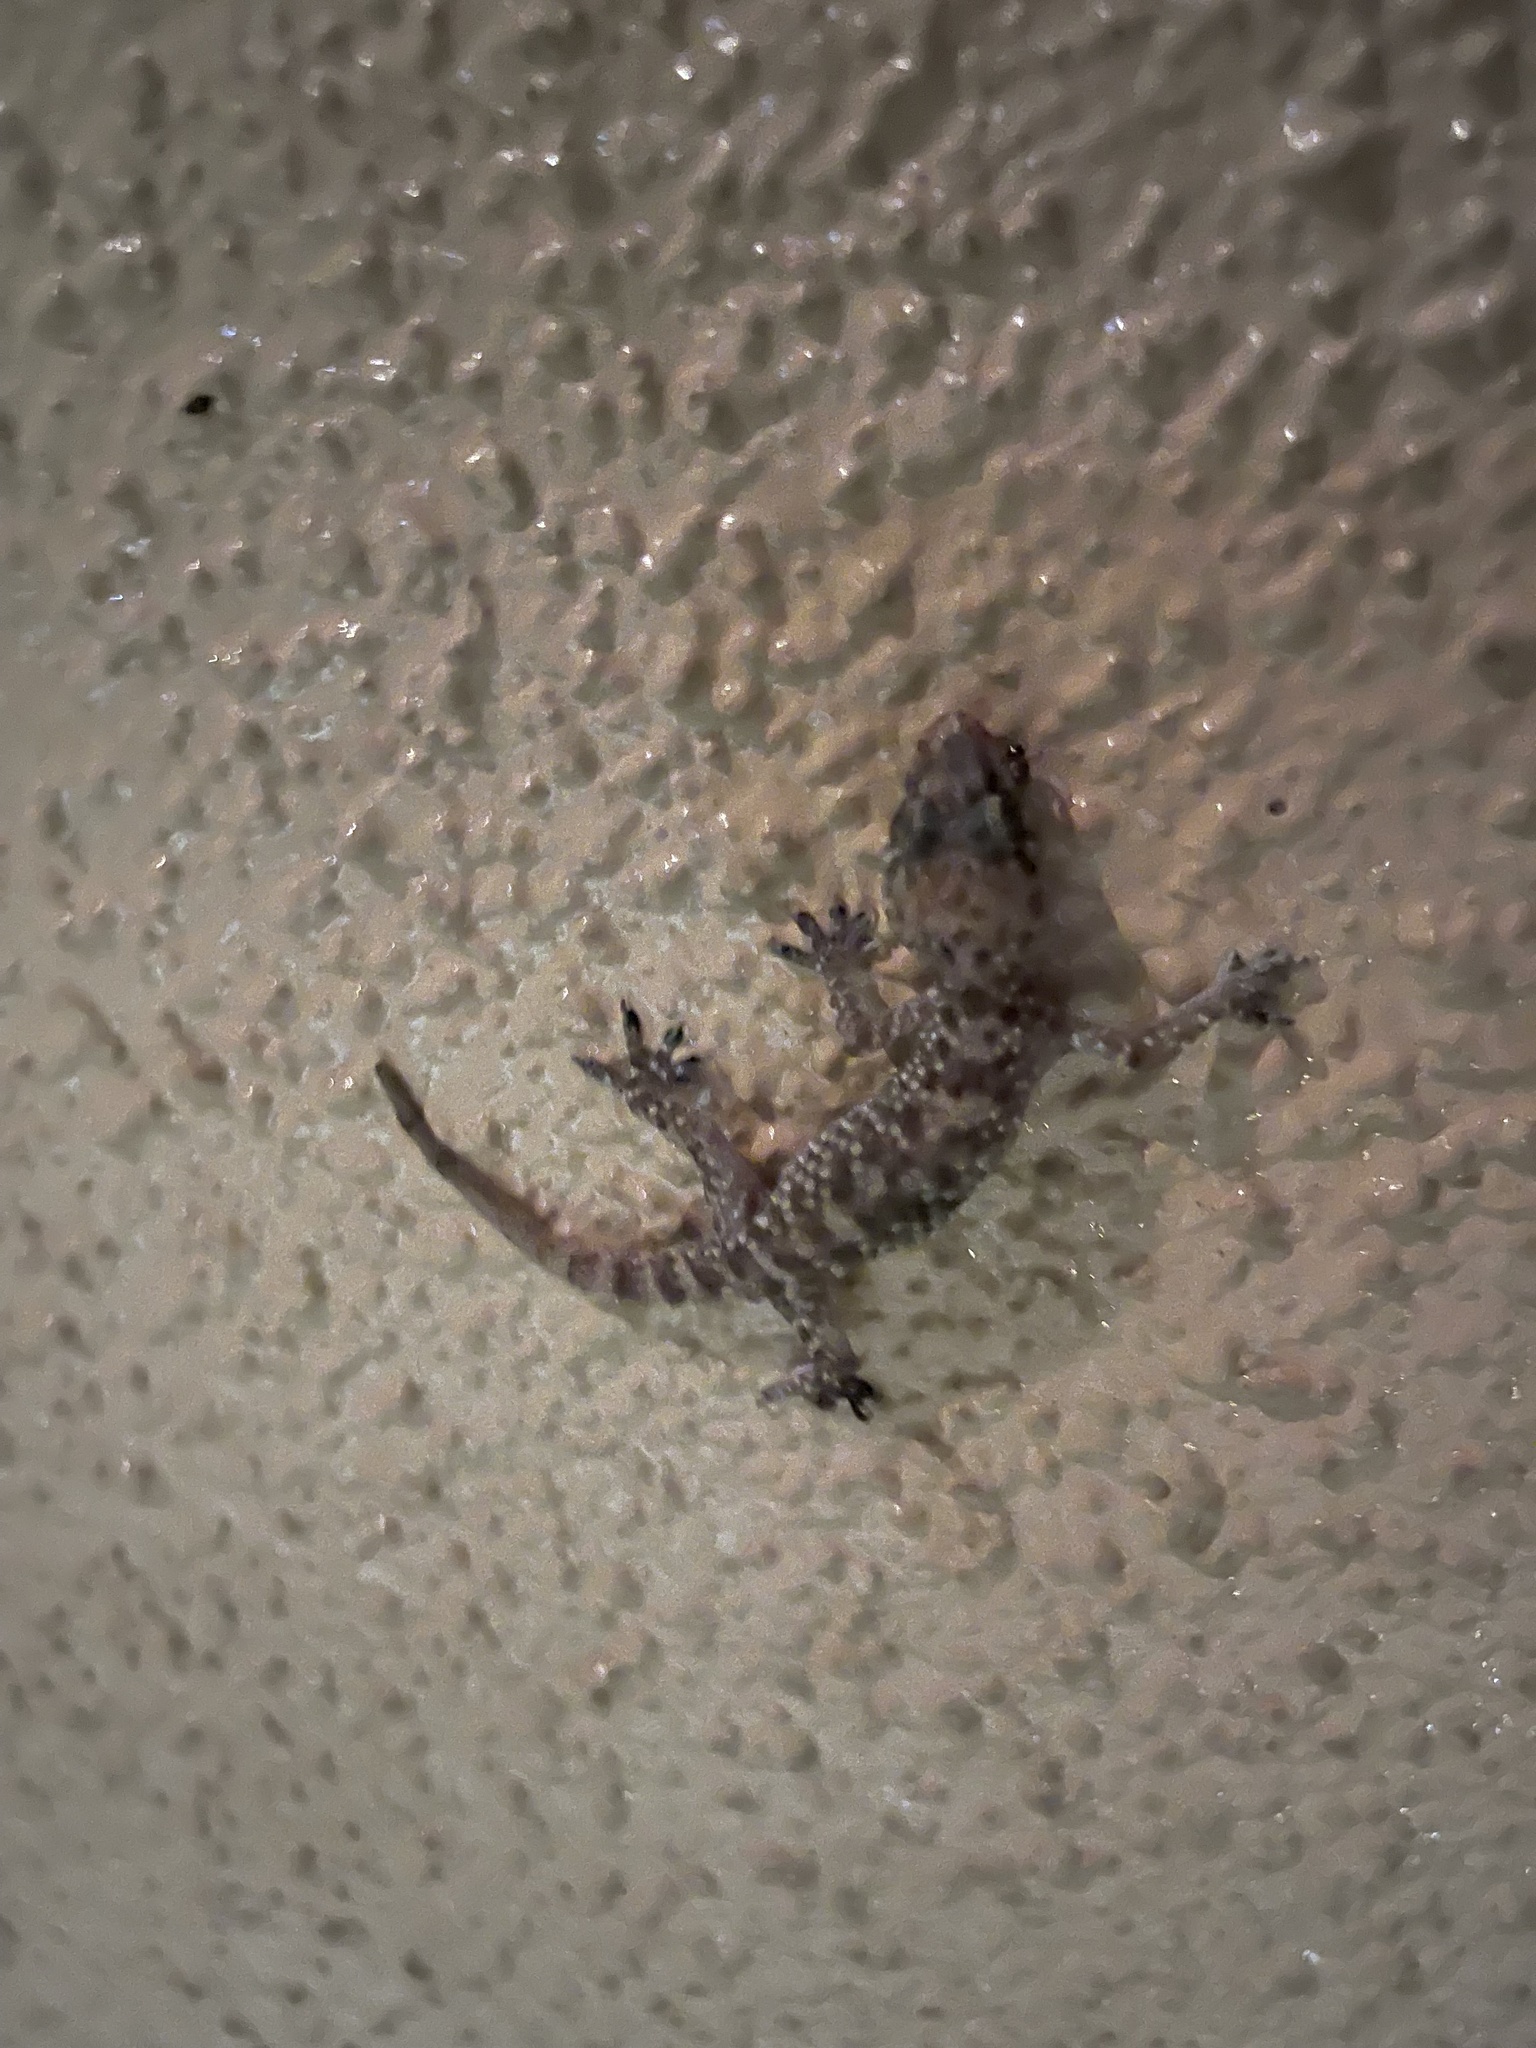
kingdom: Animalia
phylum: Chordata
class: Squamata
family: Gekkonidae
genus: Hemidactylus
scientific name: Hemidactylus turcicus
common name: Turkish gecko
